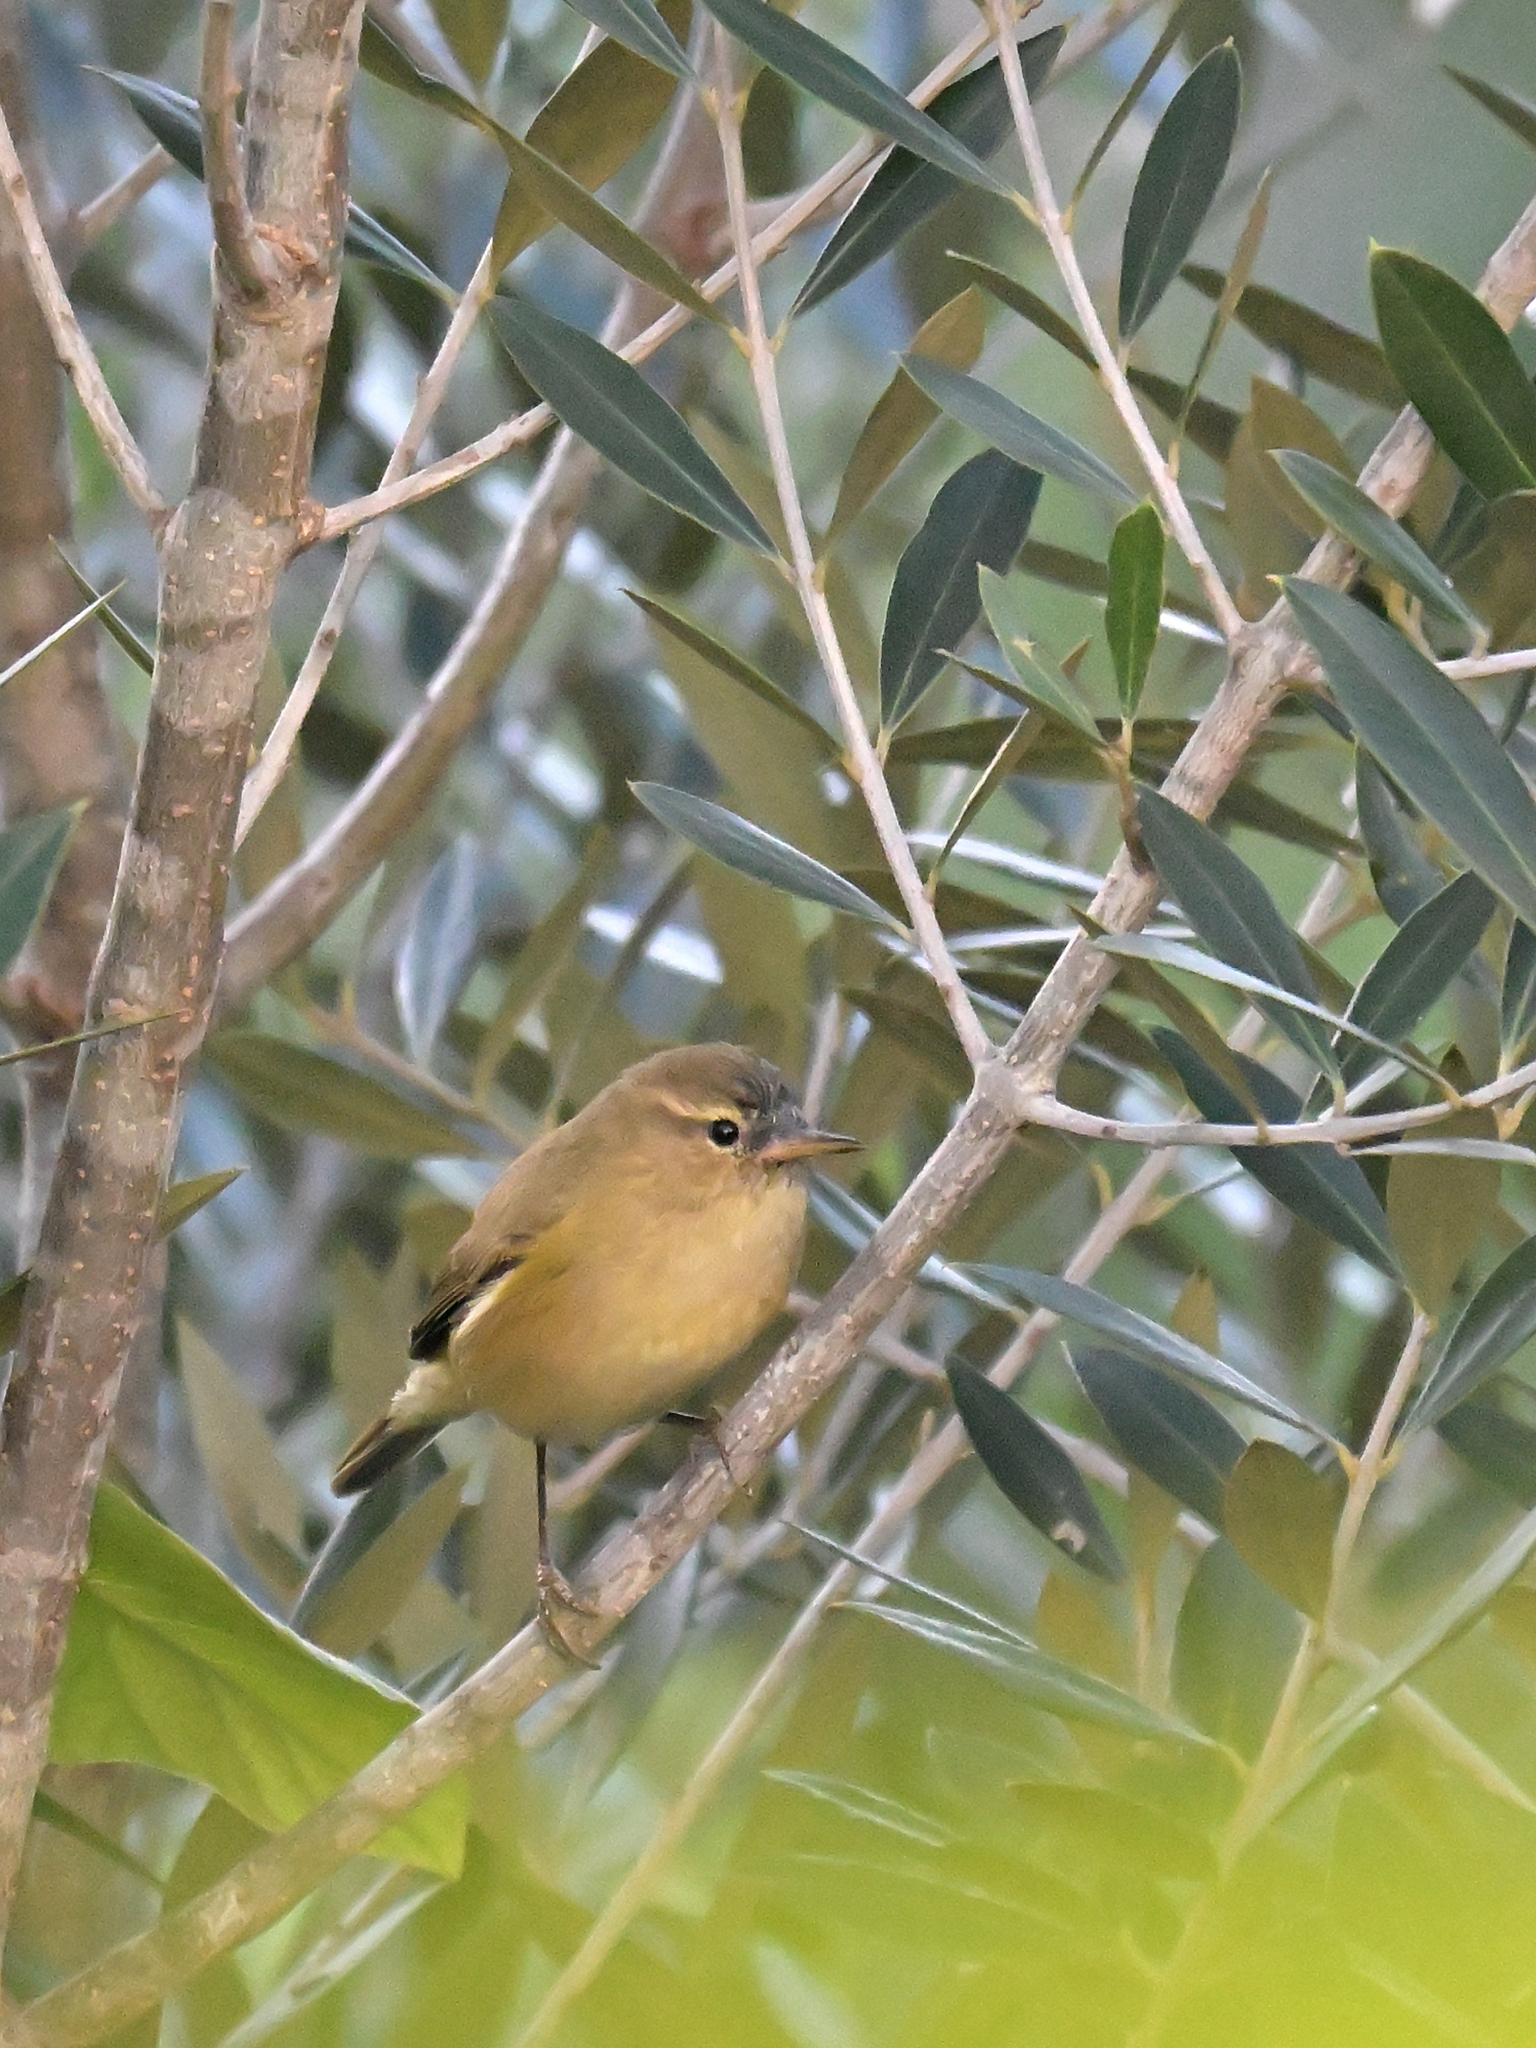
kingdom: Animalia
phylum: Chordata
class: Aves
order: Passeriformes
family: Phylloscopidae
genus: Phylloscopus
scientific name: Phylloscopus collybita
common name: Common chiffchaff
